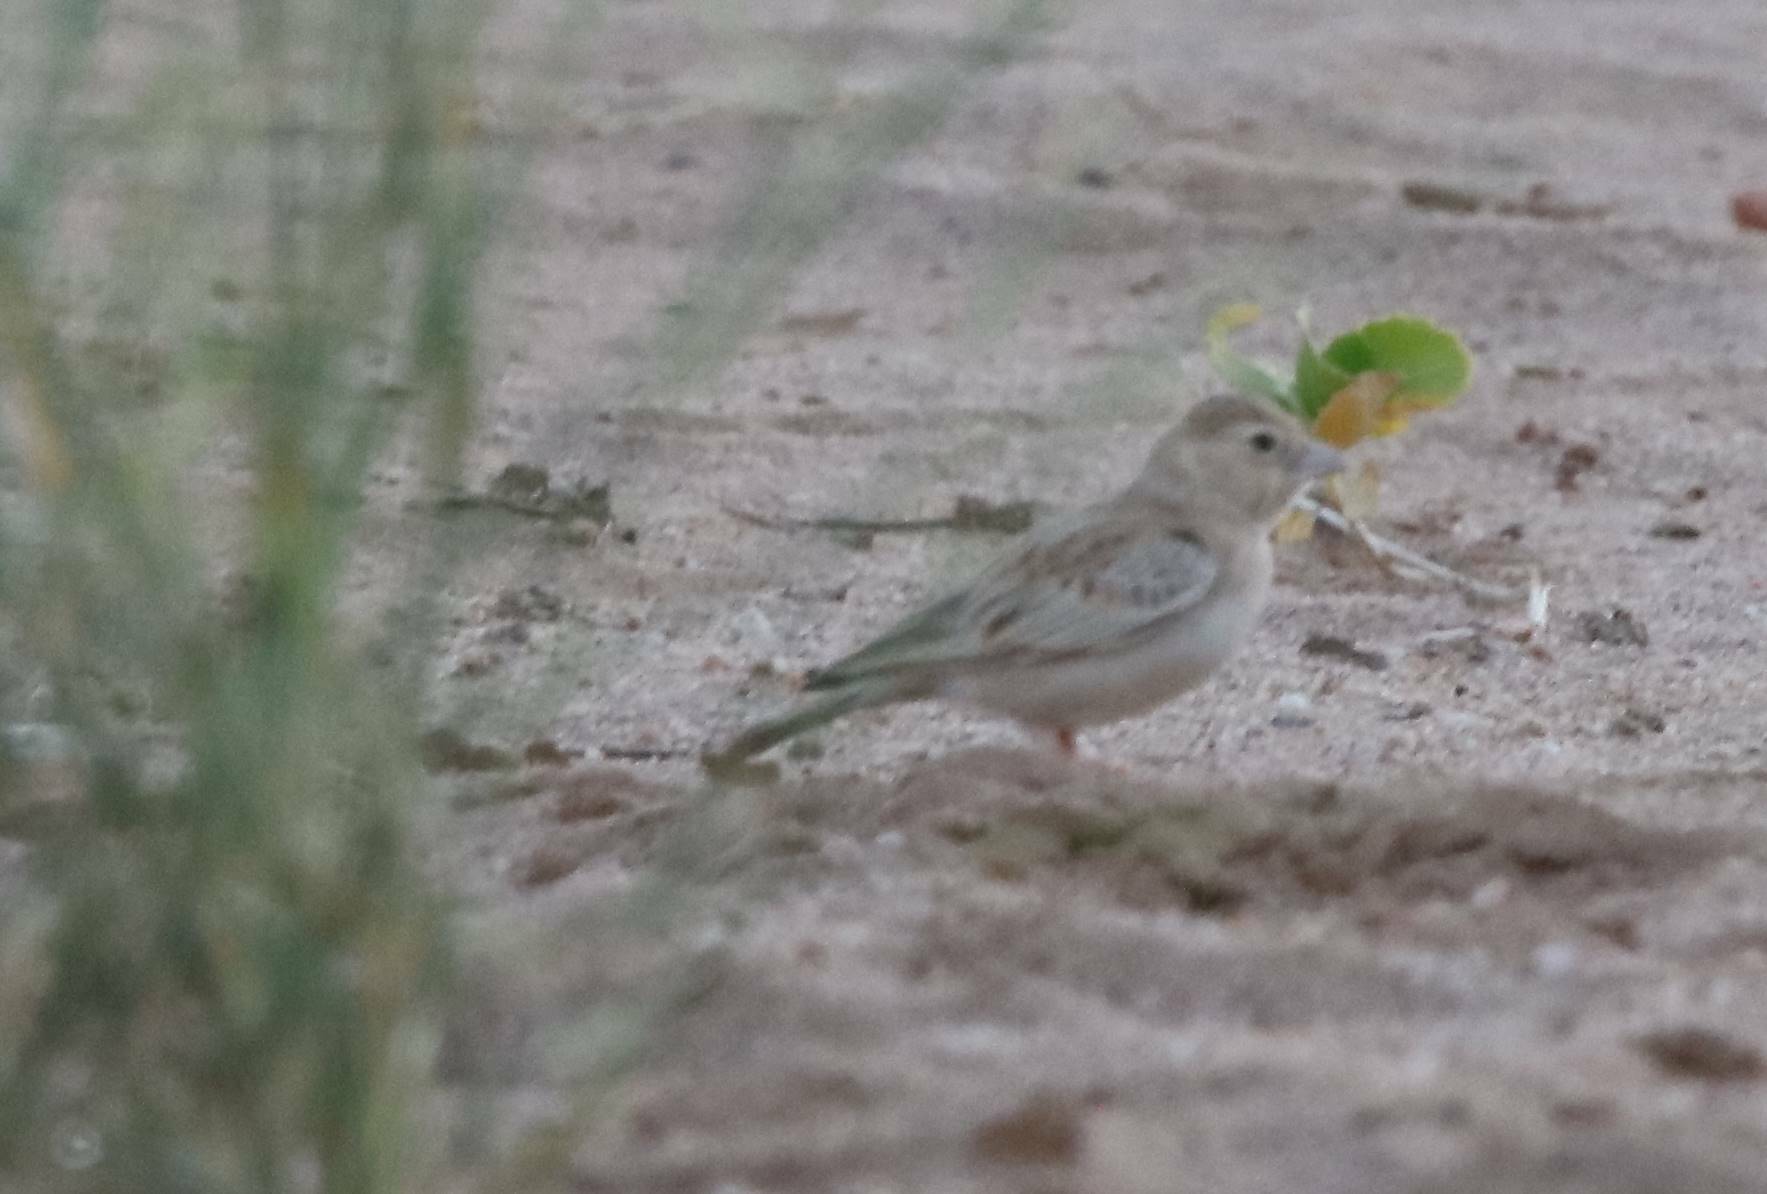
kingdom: Animalia
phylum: Chordata
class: Aves
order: Passeriformes
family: Alaudidae
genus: Eremopterix
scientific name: Eremopterix nigriceps
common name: Black-crowned sparrow-lark
